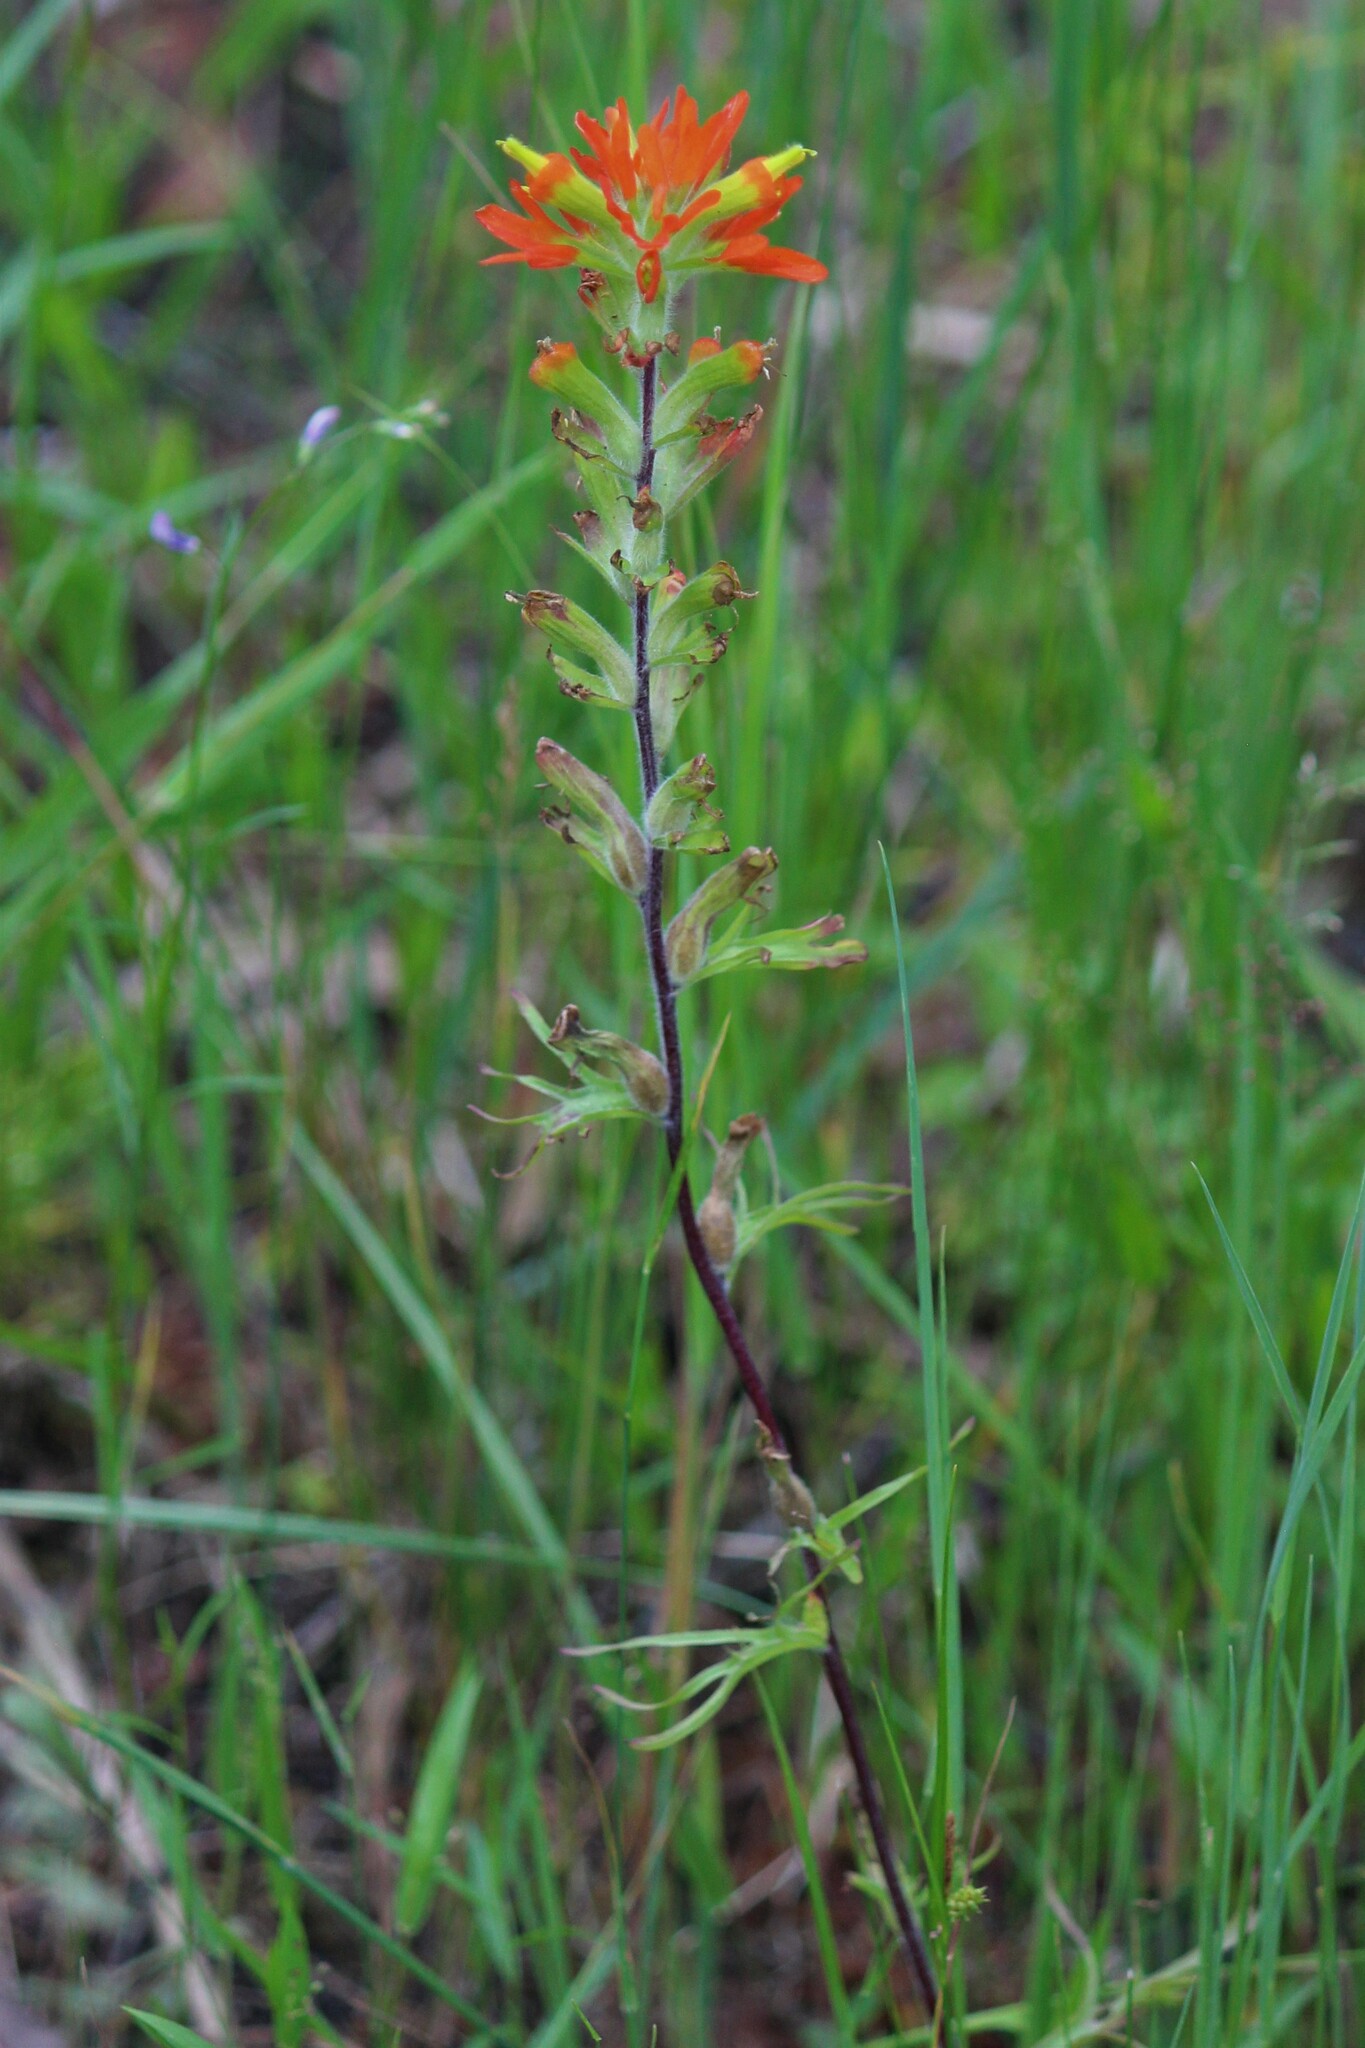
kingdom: Plantae
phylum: Tracheophyta
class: Magnoliopsida
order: Lamiales
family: Orobanchaceae
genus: Castilleja
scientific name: Castilleja coccinea
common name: Scarlet paintbrush
